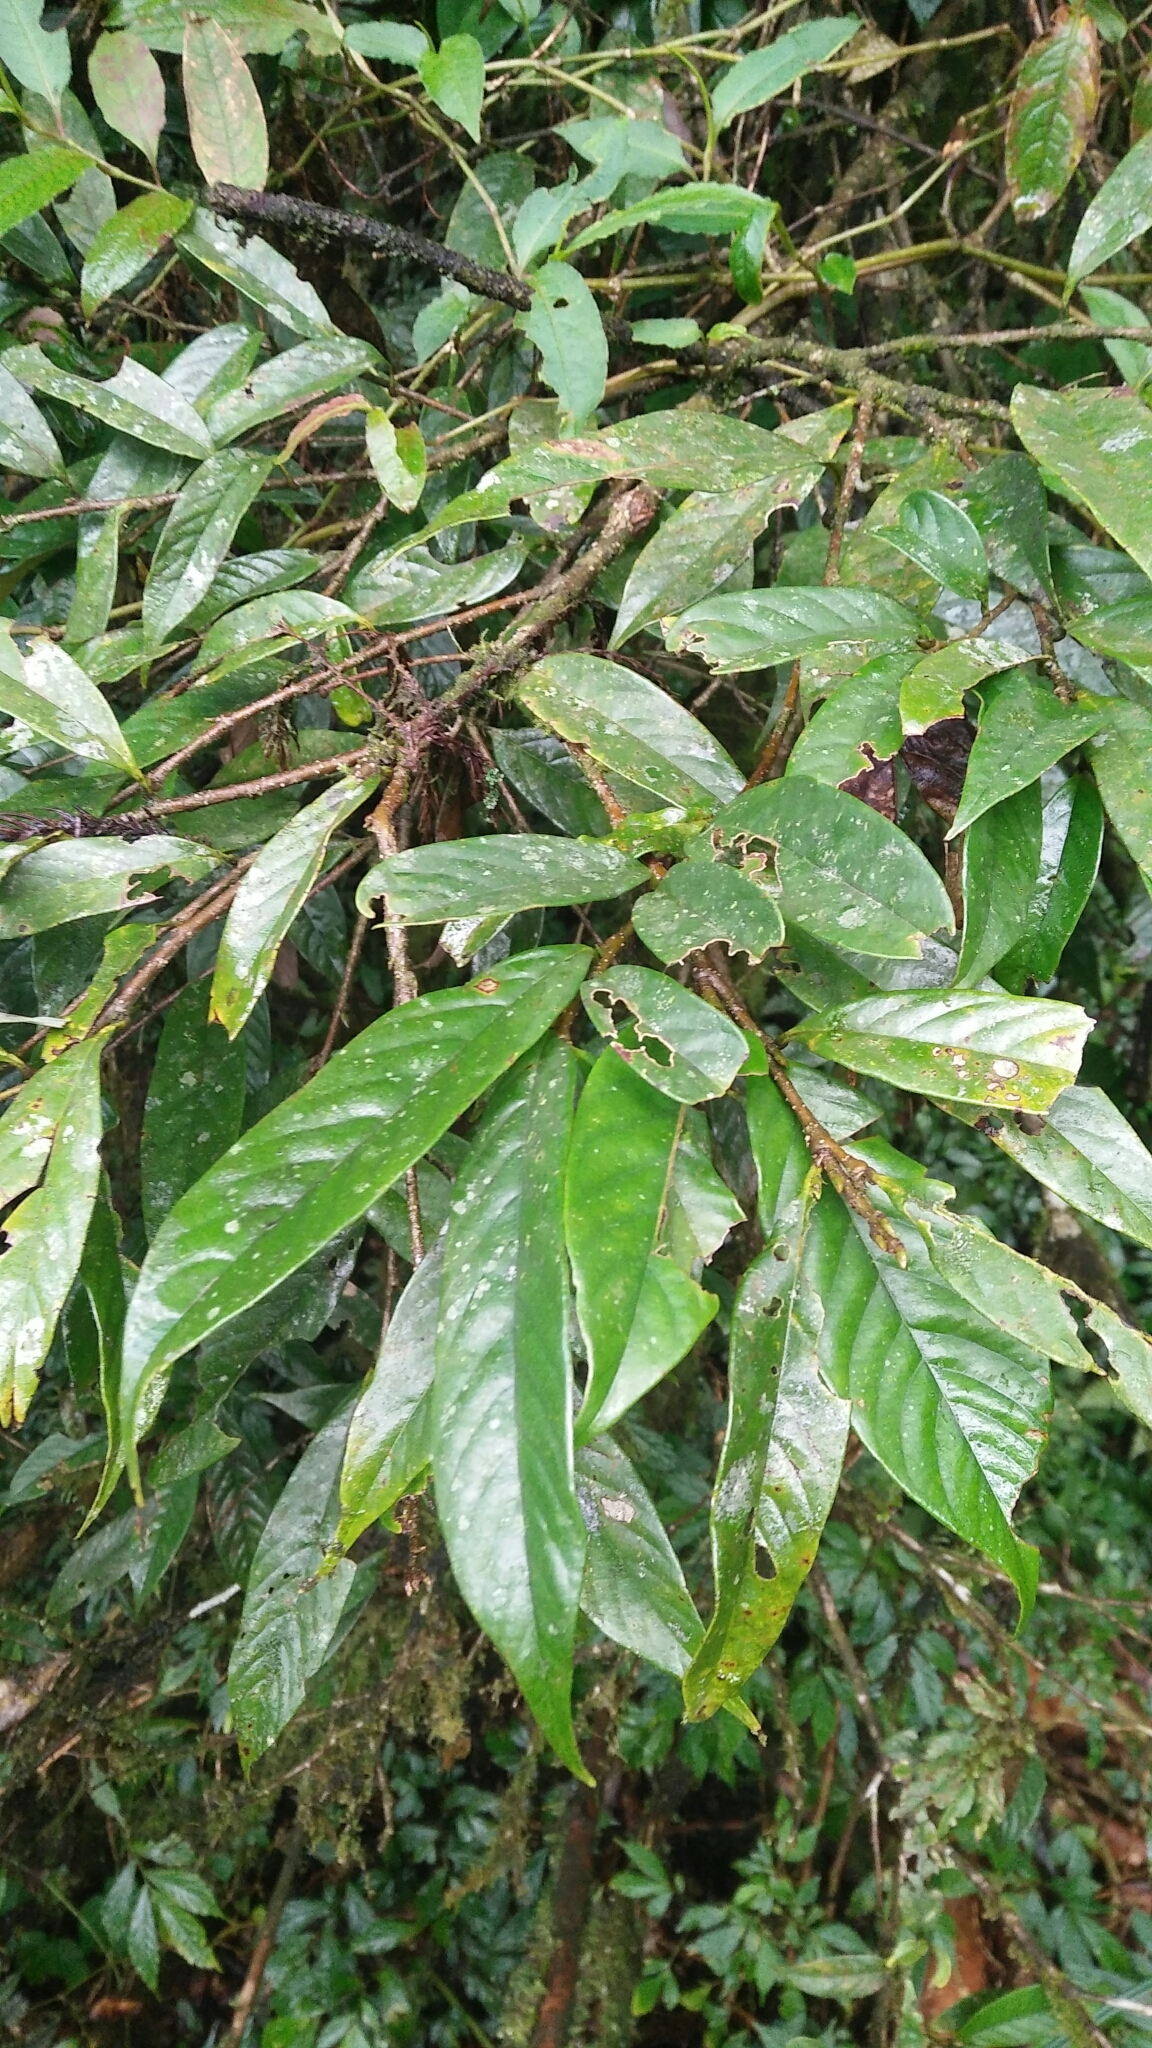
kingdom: Plantae
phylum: Tracheophyta
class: Magnoliopsida
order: Fagales
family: Fagaceae
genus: Castanopsis
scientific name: Castanopsis faberi
